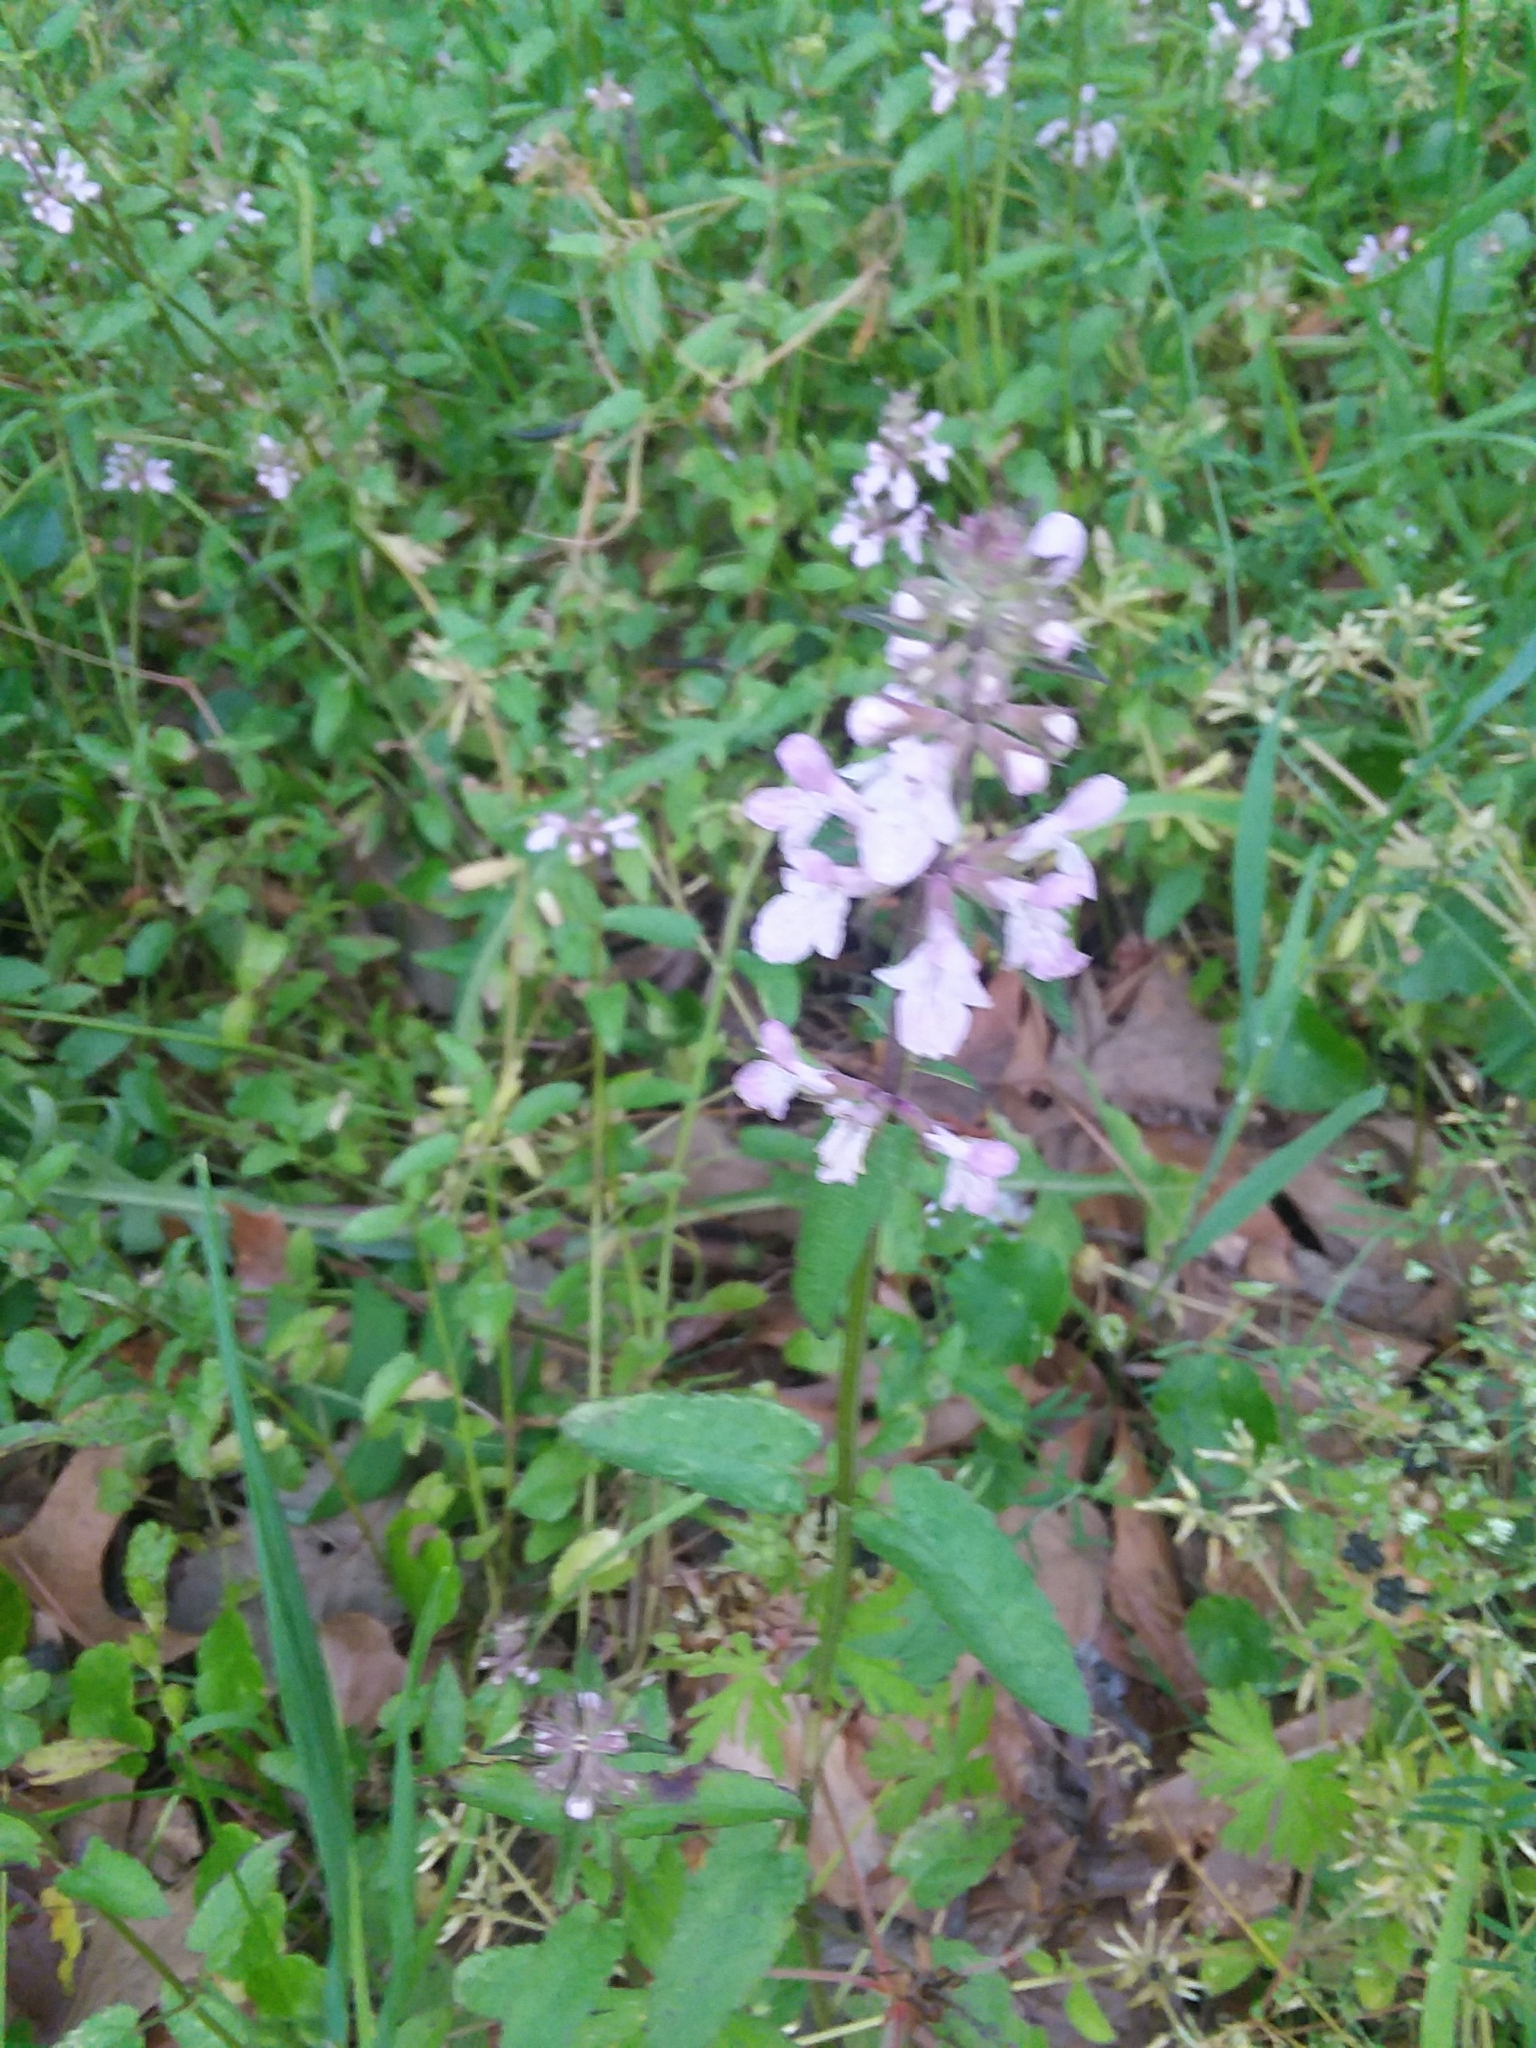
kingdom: Plantae
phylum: Tracheophyta
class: Magnoliopsida
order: Lamiales
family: Lamiaceae
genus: Stachys
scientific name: Stachys floridana
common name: Florida betony
